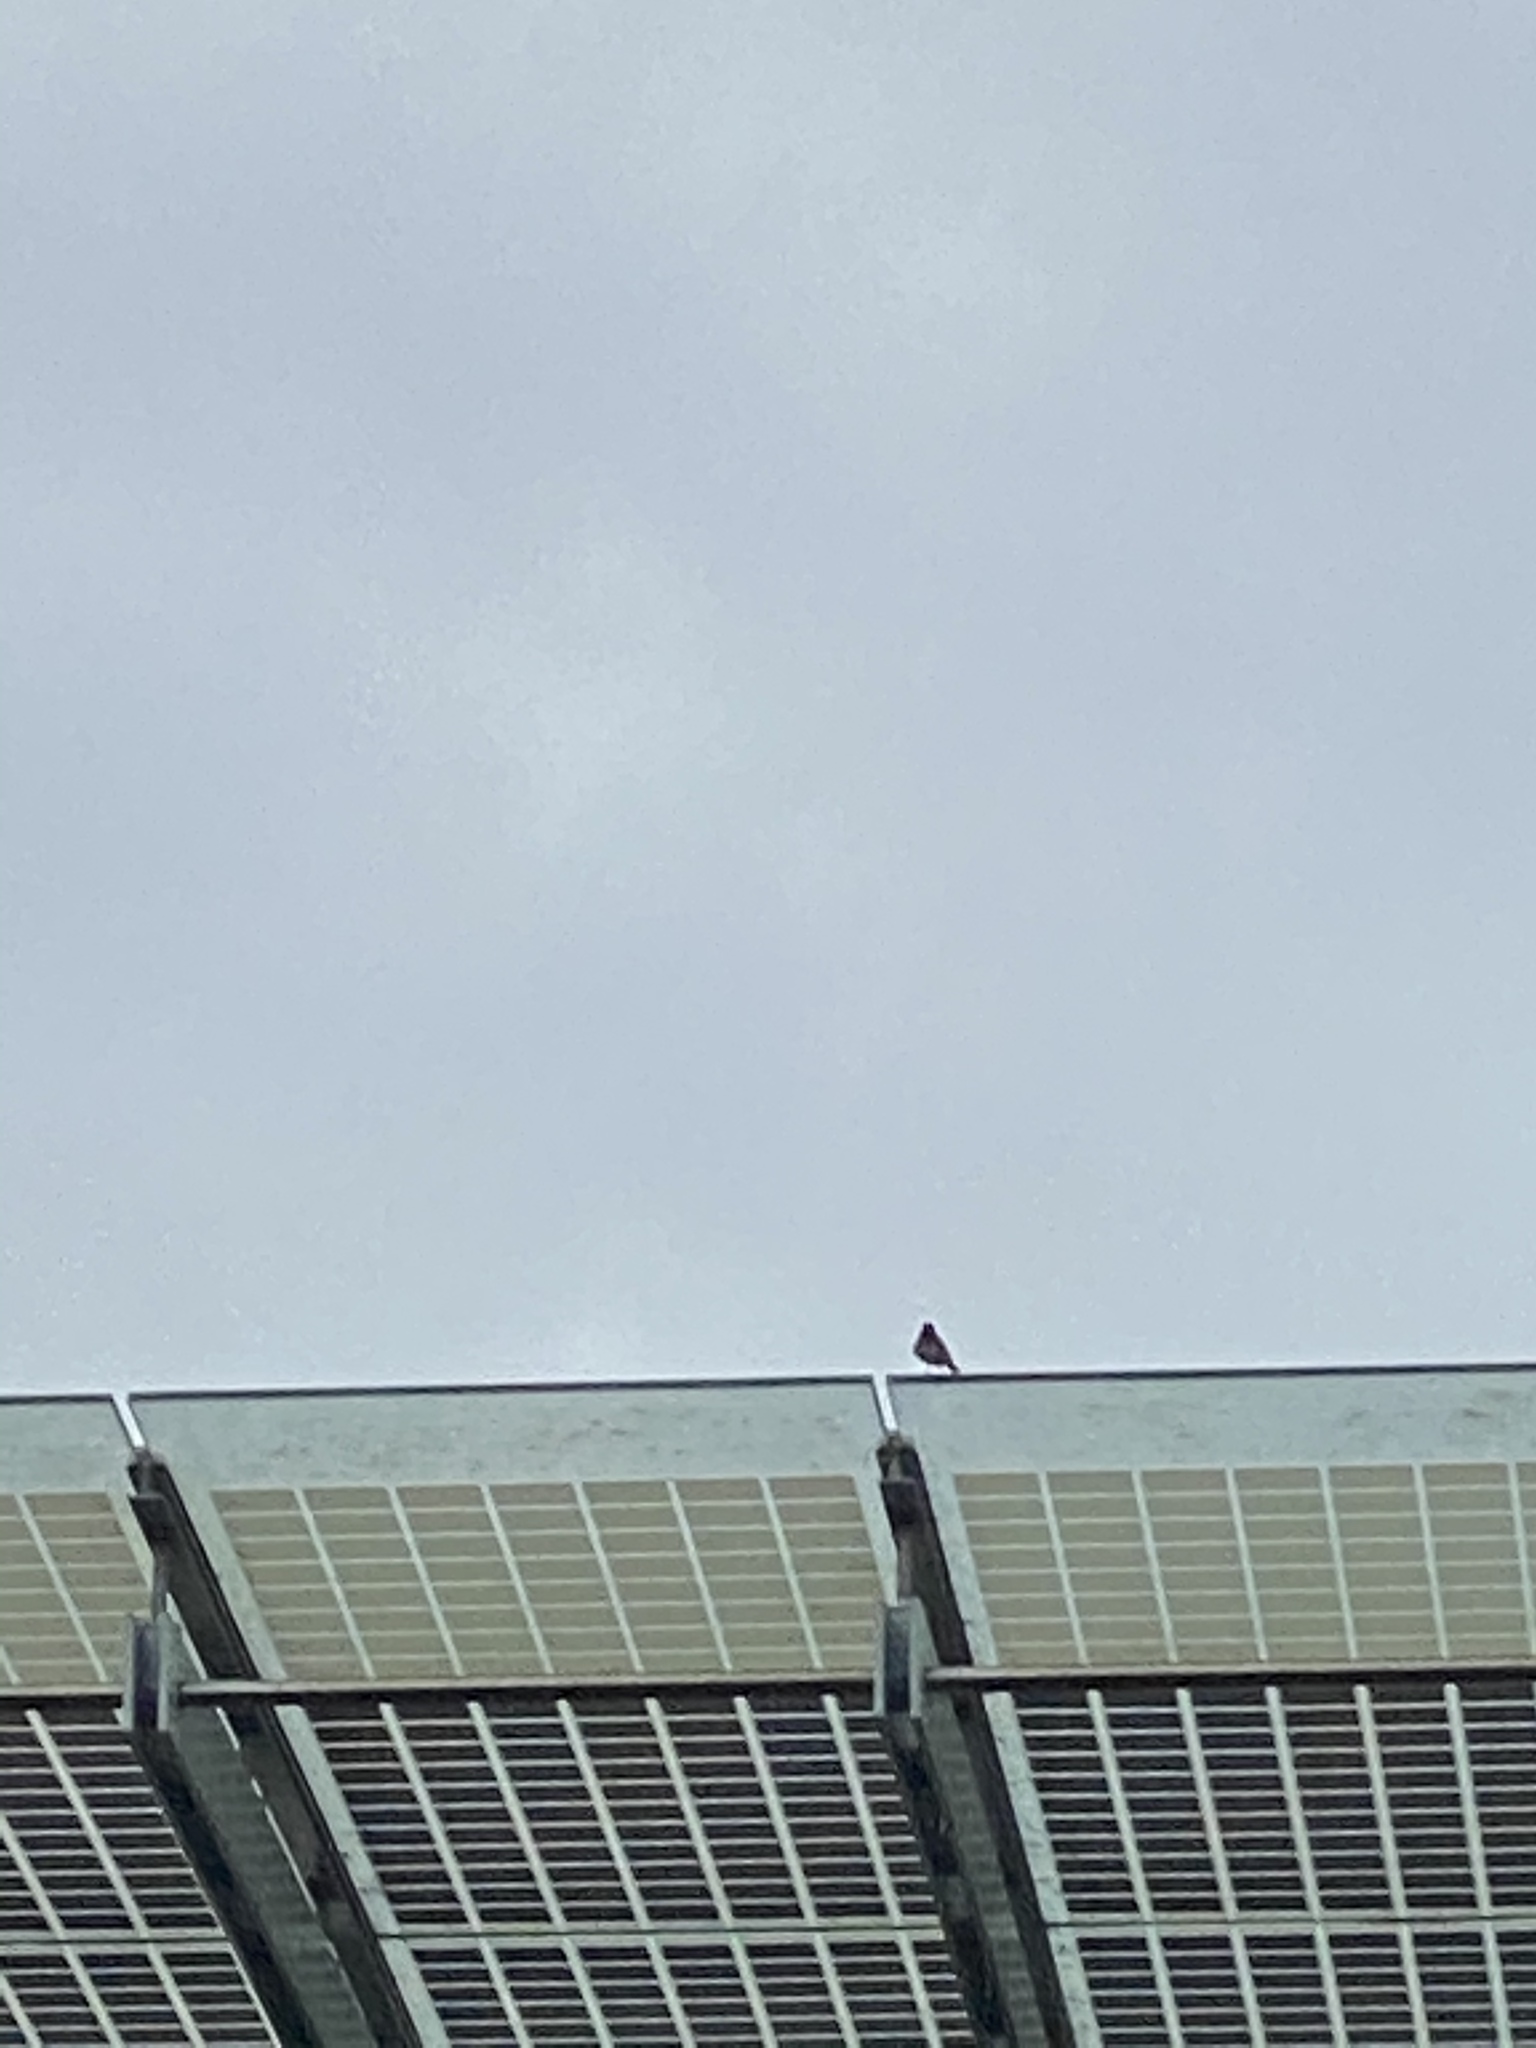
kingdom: Animalia
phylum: Chordata
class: Aves
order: Passeriformes
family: Tyrannidae
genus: Sayornis
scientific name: Sayornis nigricans
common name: Black phoebe
